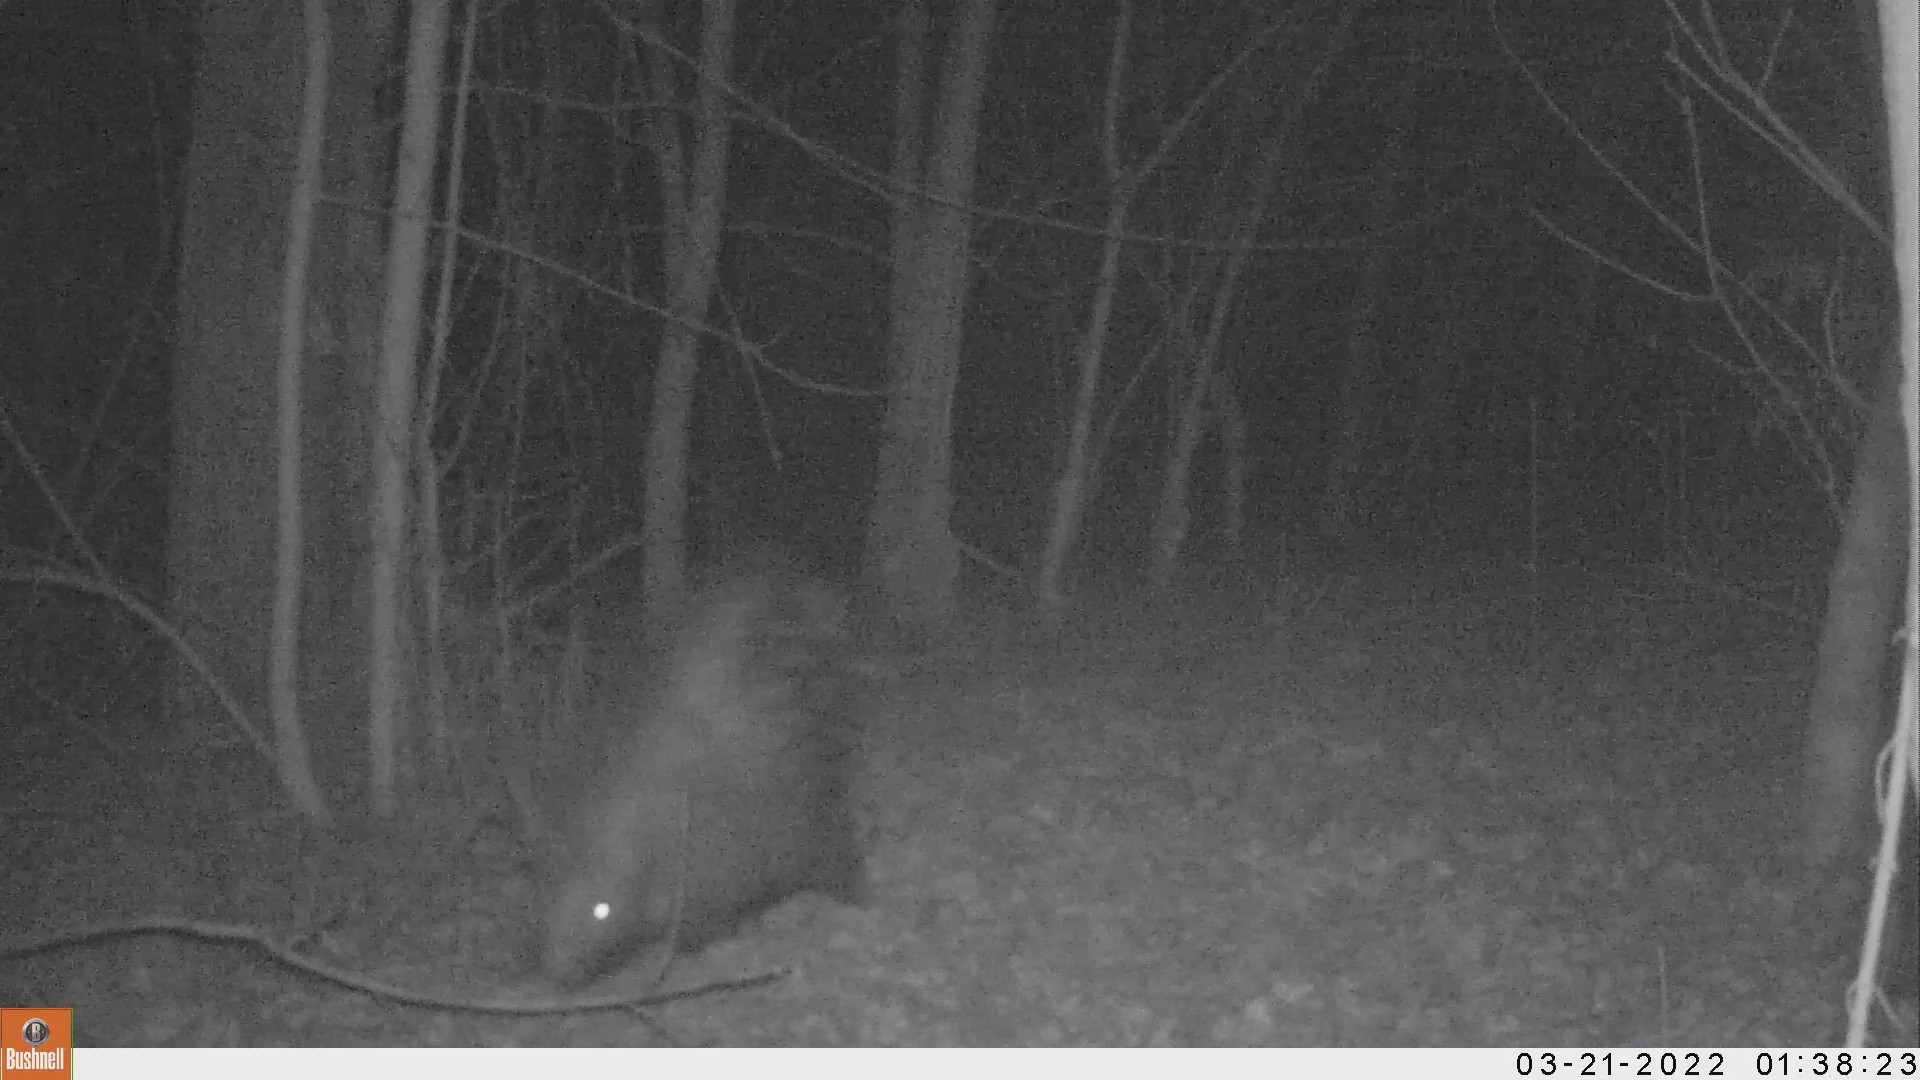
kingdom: Animalia
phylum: Chordata
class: Mammalia
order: Rodentia
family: Hystricidae
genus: Hystrix
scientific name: Hystrix cristata
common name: Crested porcupine
